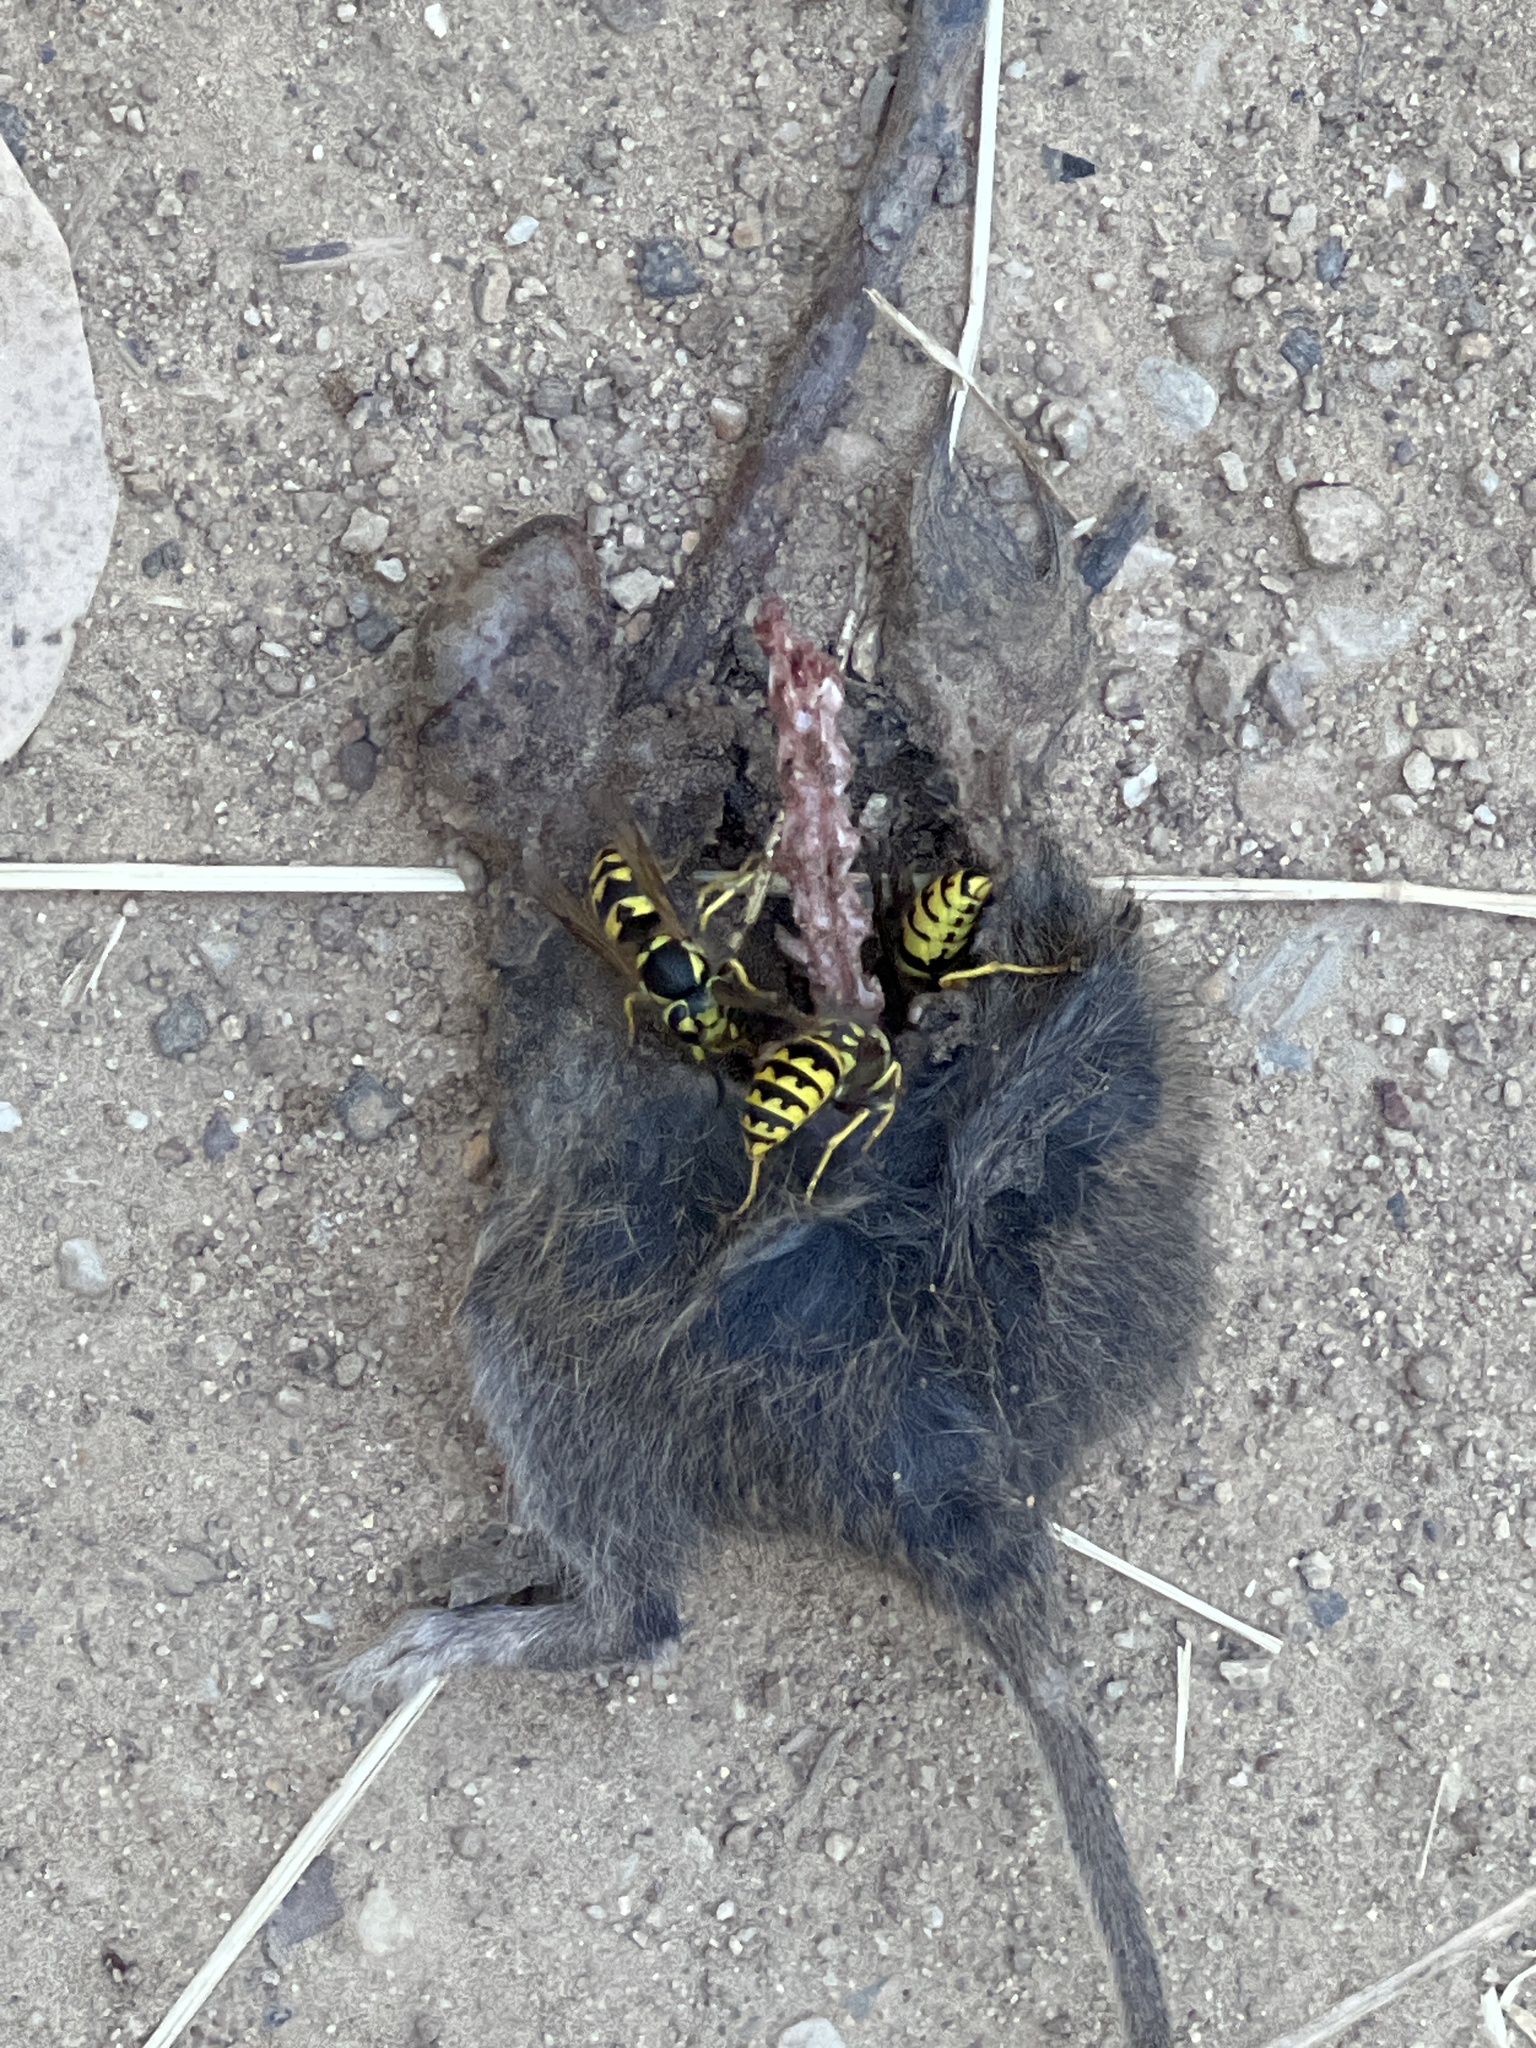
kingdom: Animalia
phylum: Arthropoda
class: Insecta
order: Hymenoptera
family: Vespidae
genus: Vespula
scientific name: Vespula pensylvanica
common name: Western yellowjacket
